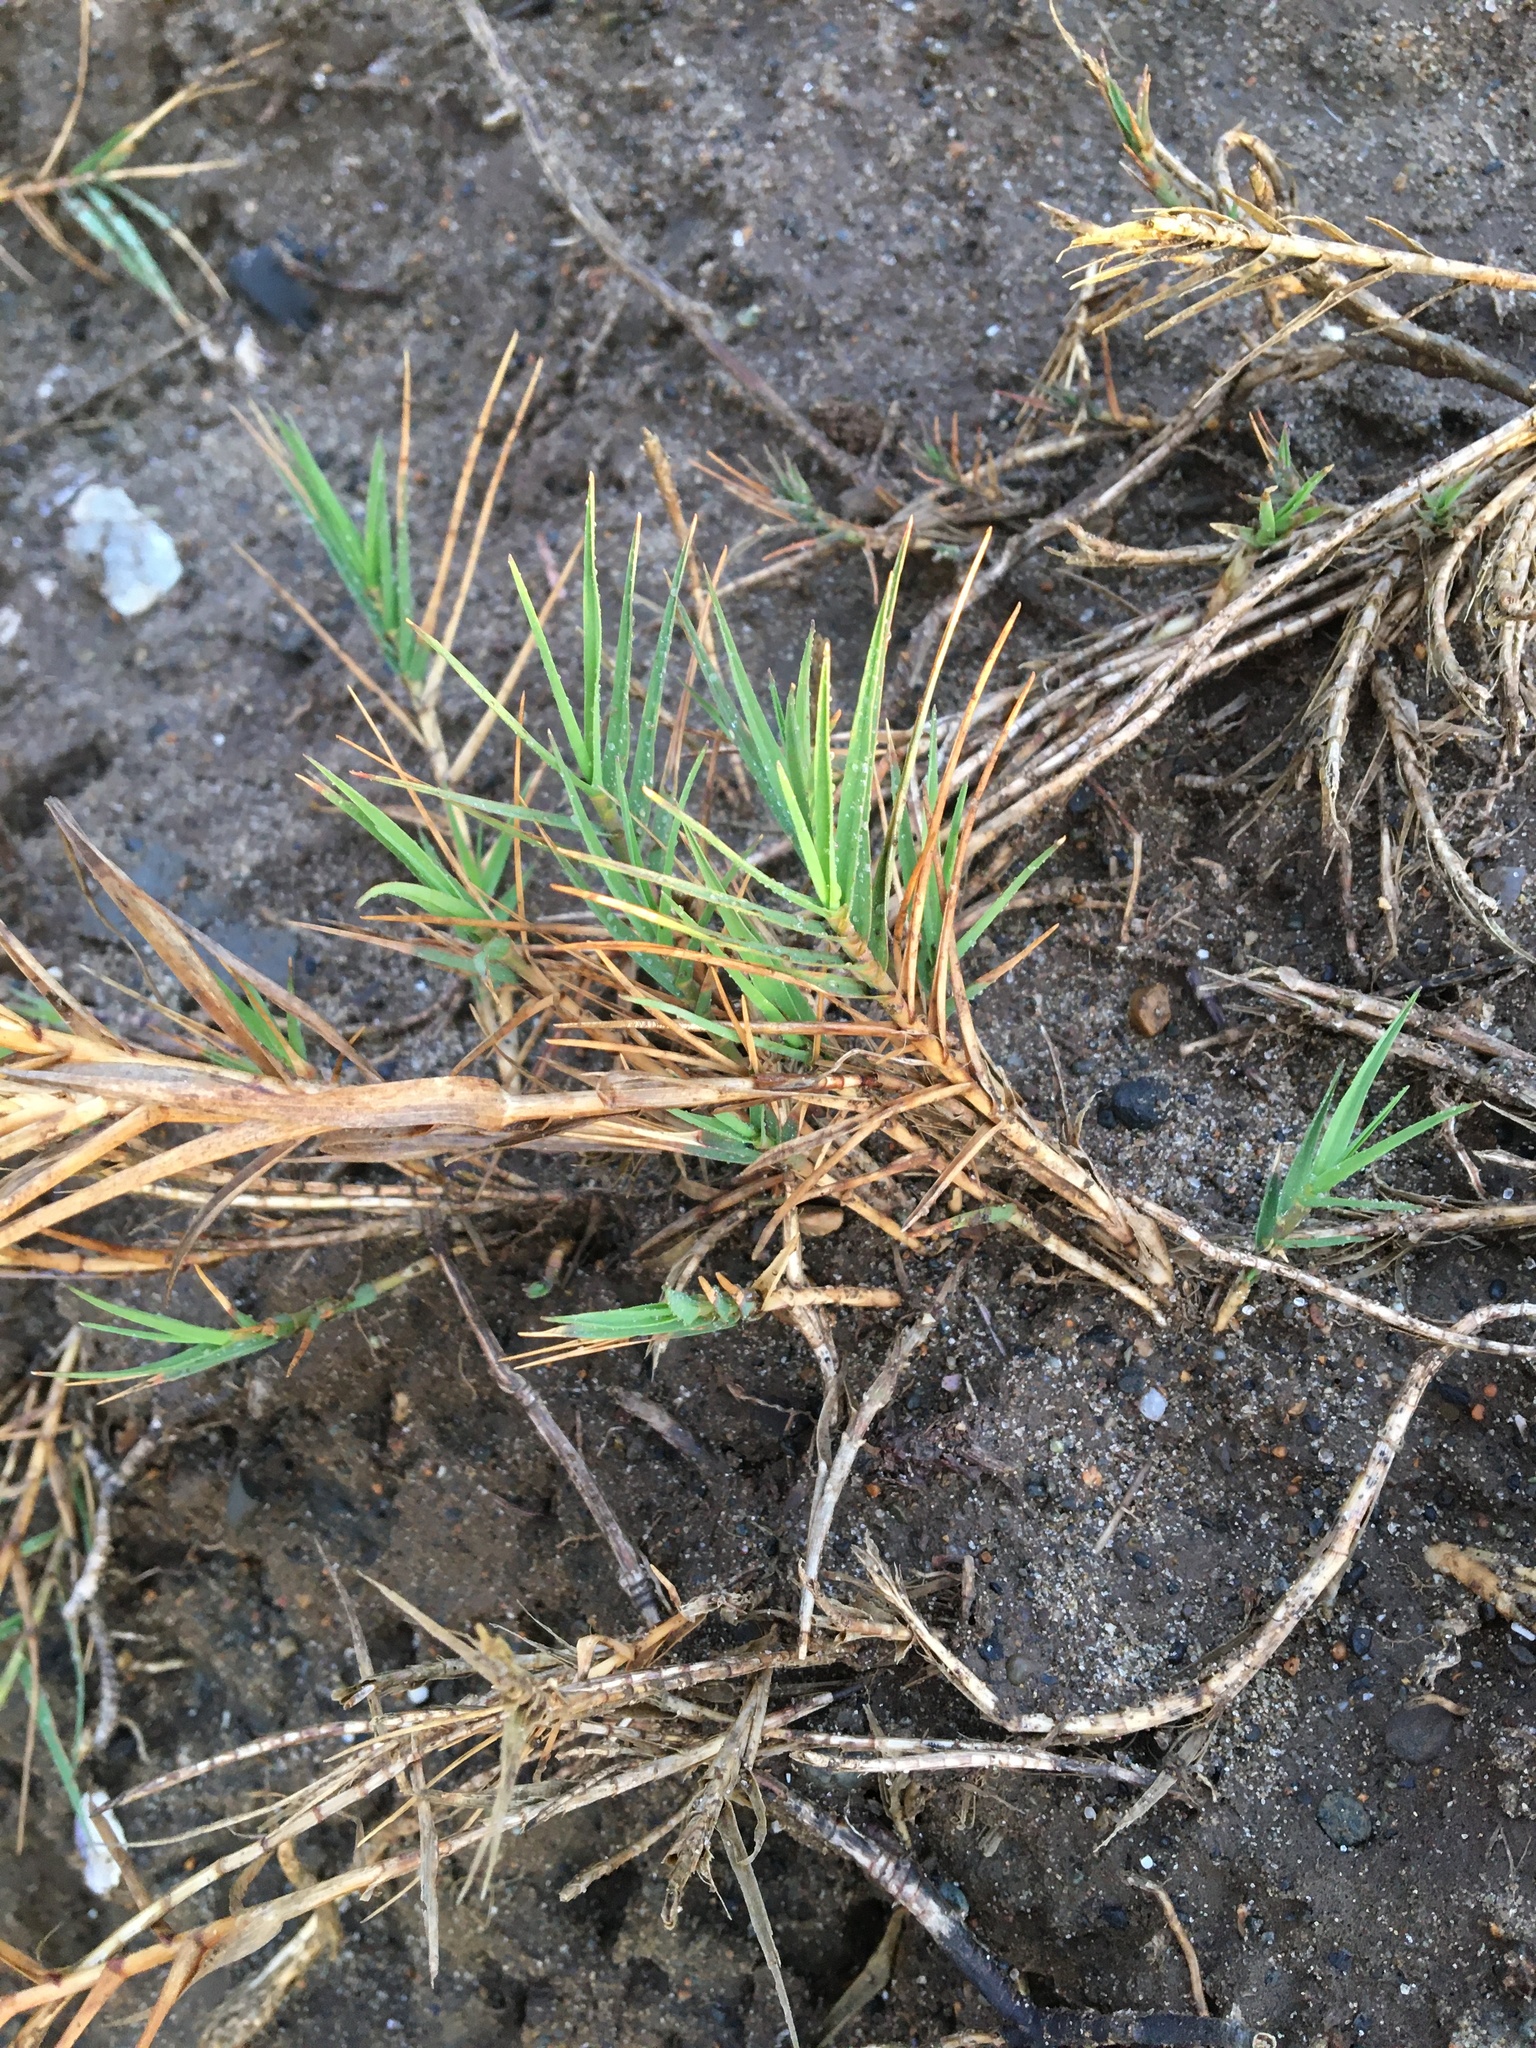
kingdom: Plantae
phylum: Tracheophyta
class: Liliopsida
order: Poales
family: Poaceae
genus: Distichlis
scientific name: Distichlis spicata
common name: Saltgrass
